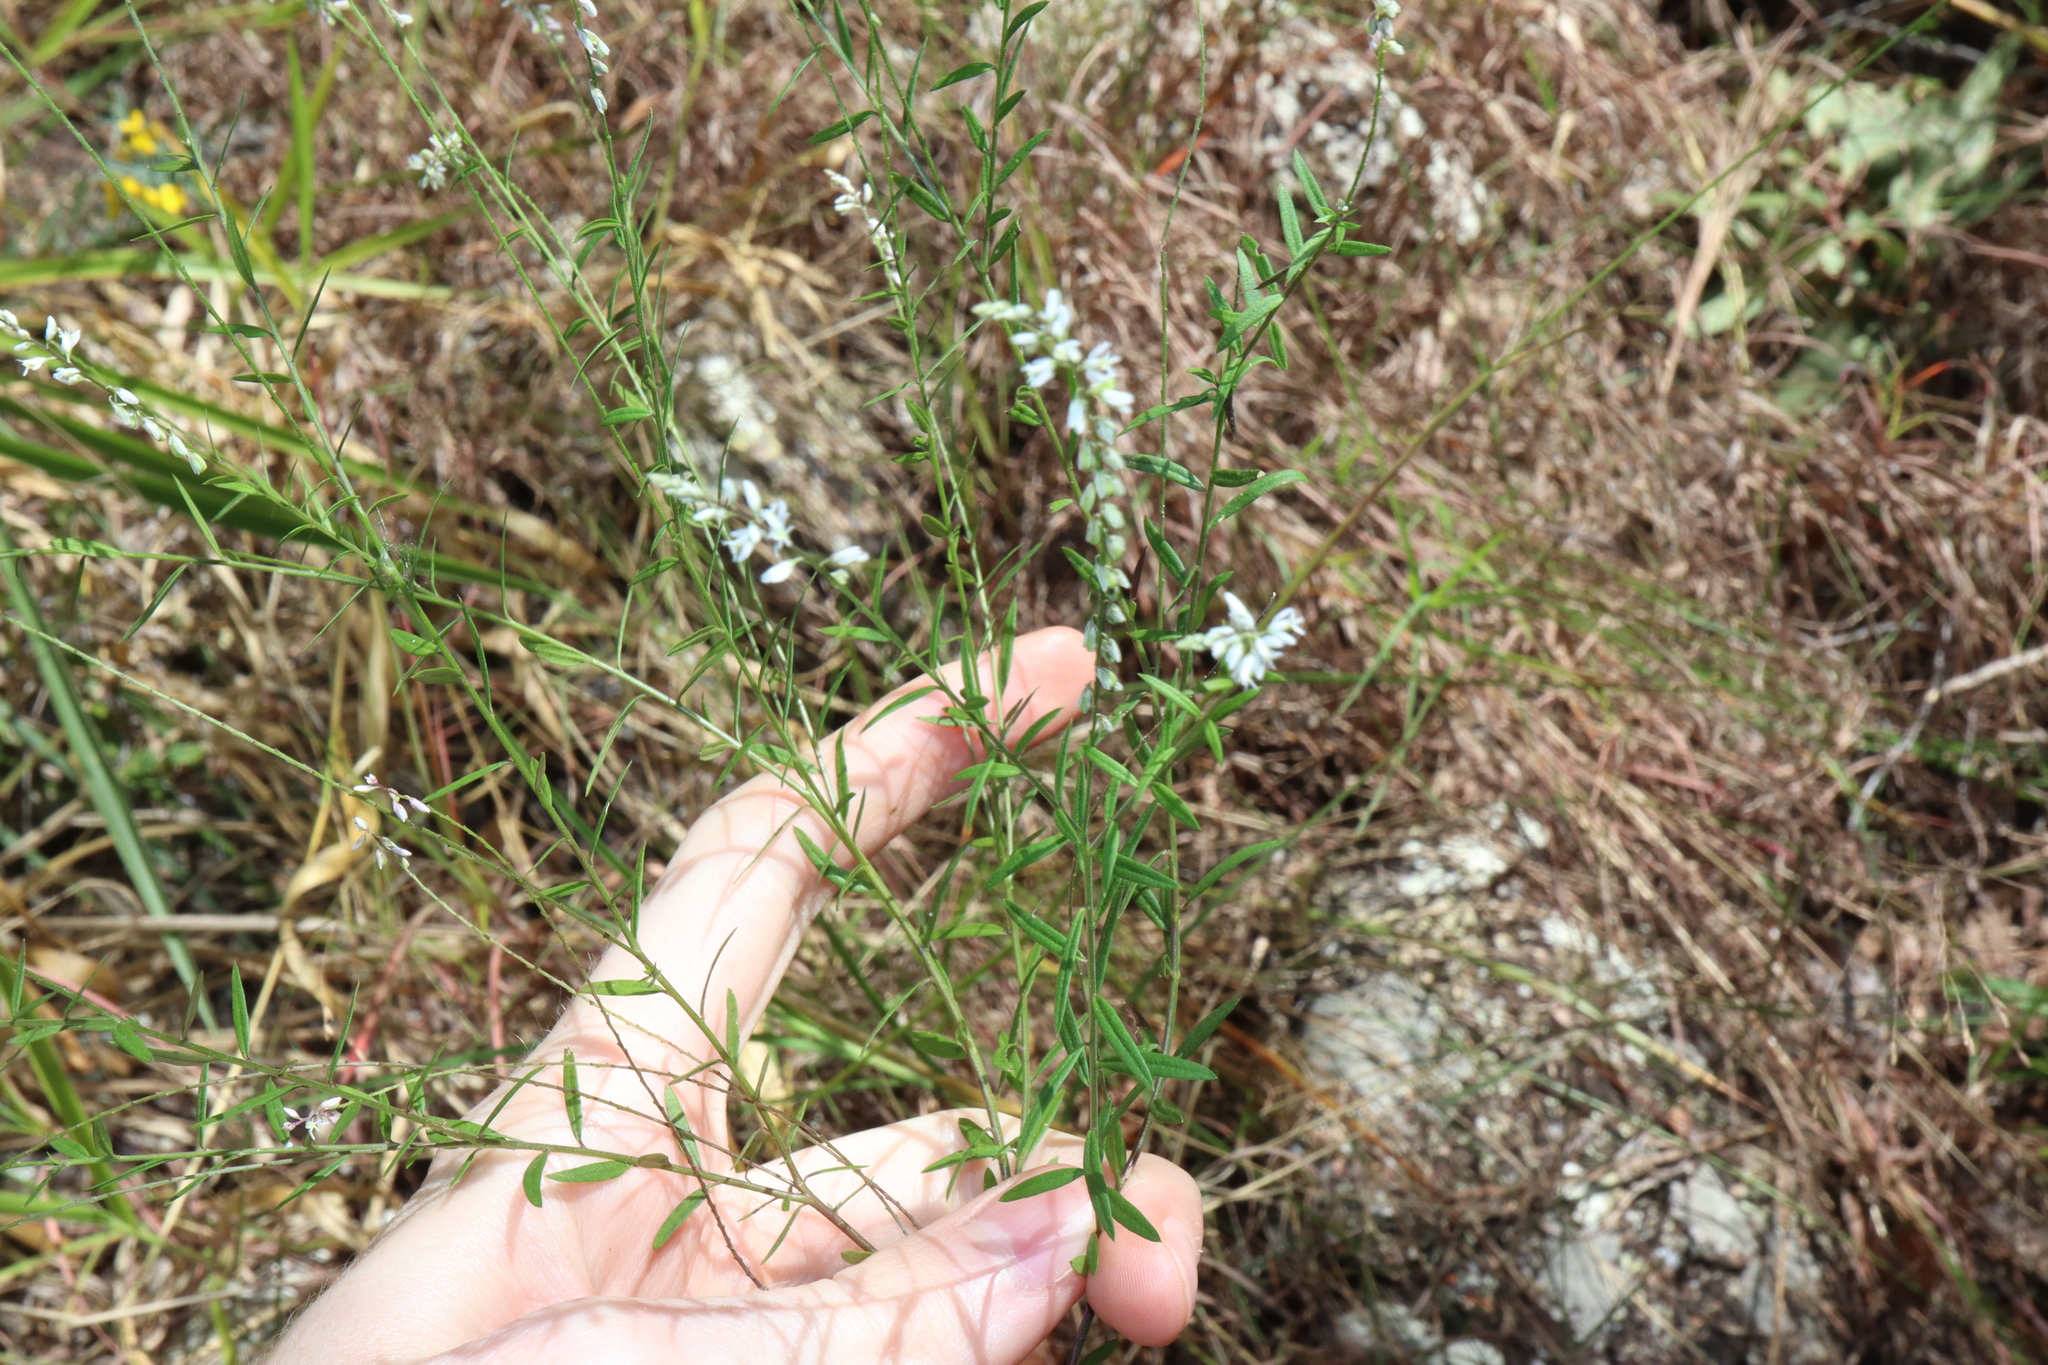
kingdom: Plantae
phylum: Tracheophyta
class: Magnoliopsida
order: Fabales
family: Polygalaceae
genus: Polygala
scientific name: Polygala paniculata
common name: Orosne
